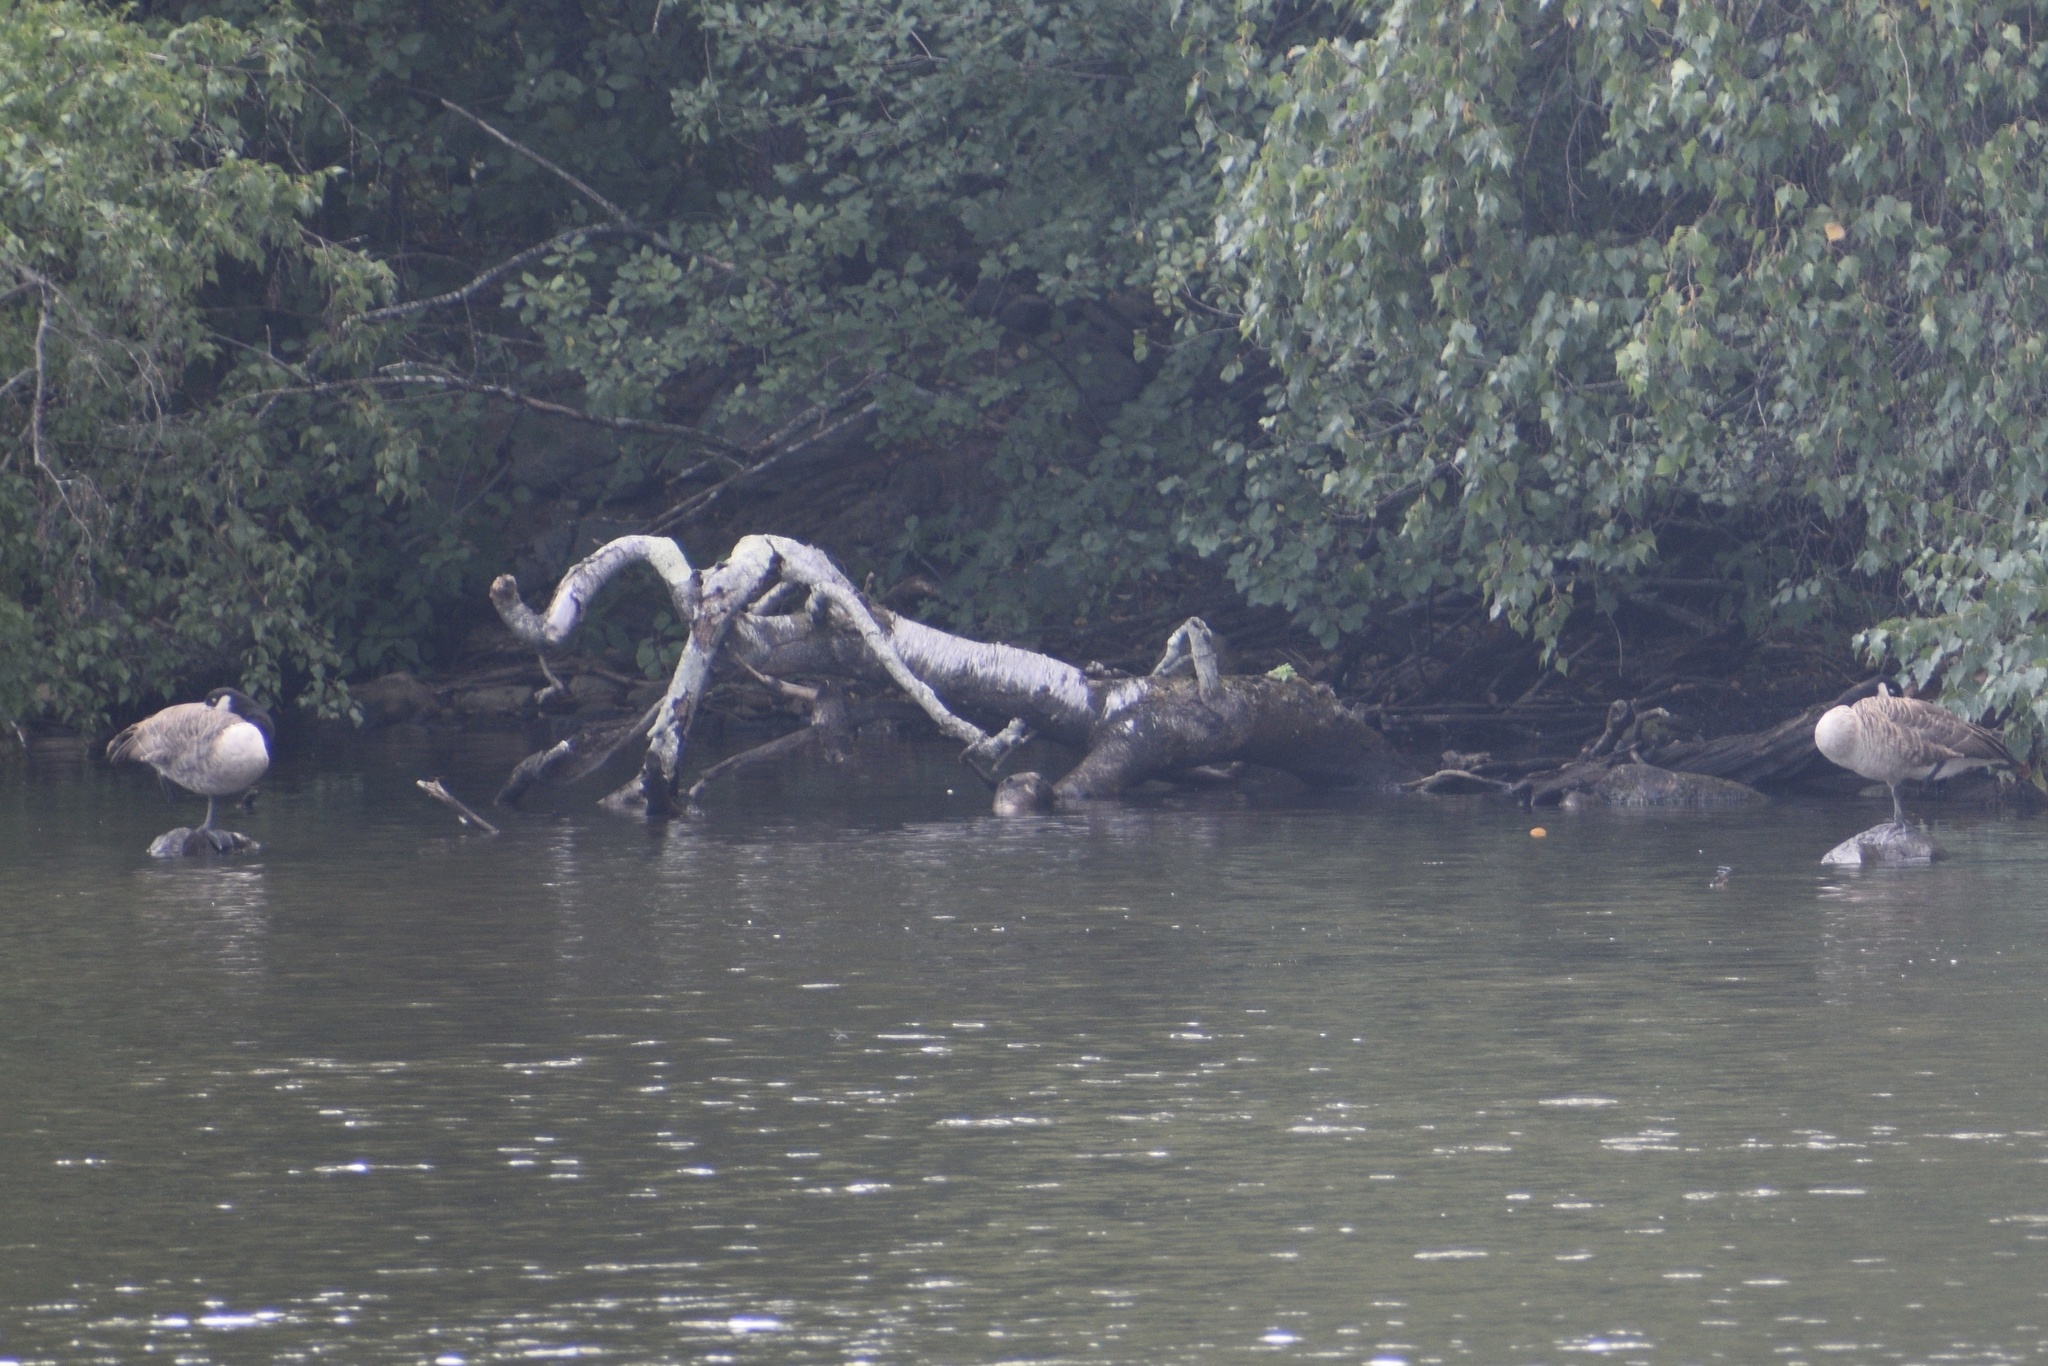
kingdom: Animalia
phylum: Chordata
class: Aves
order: Anseriformes
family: Anatidae
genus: Branta
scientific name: Branta canadensis
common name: Canada goose
